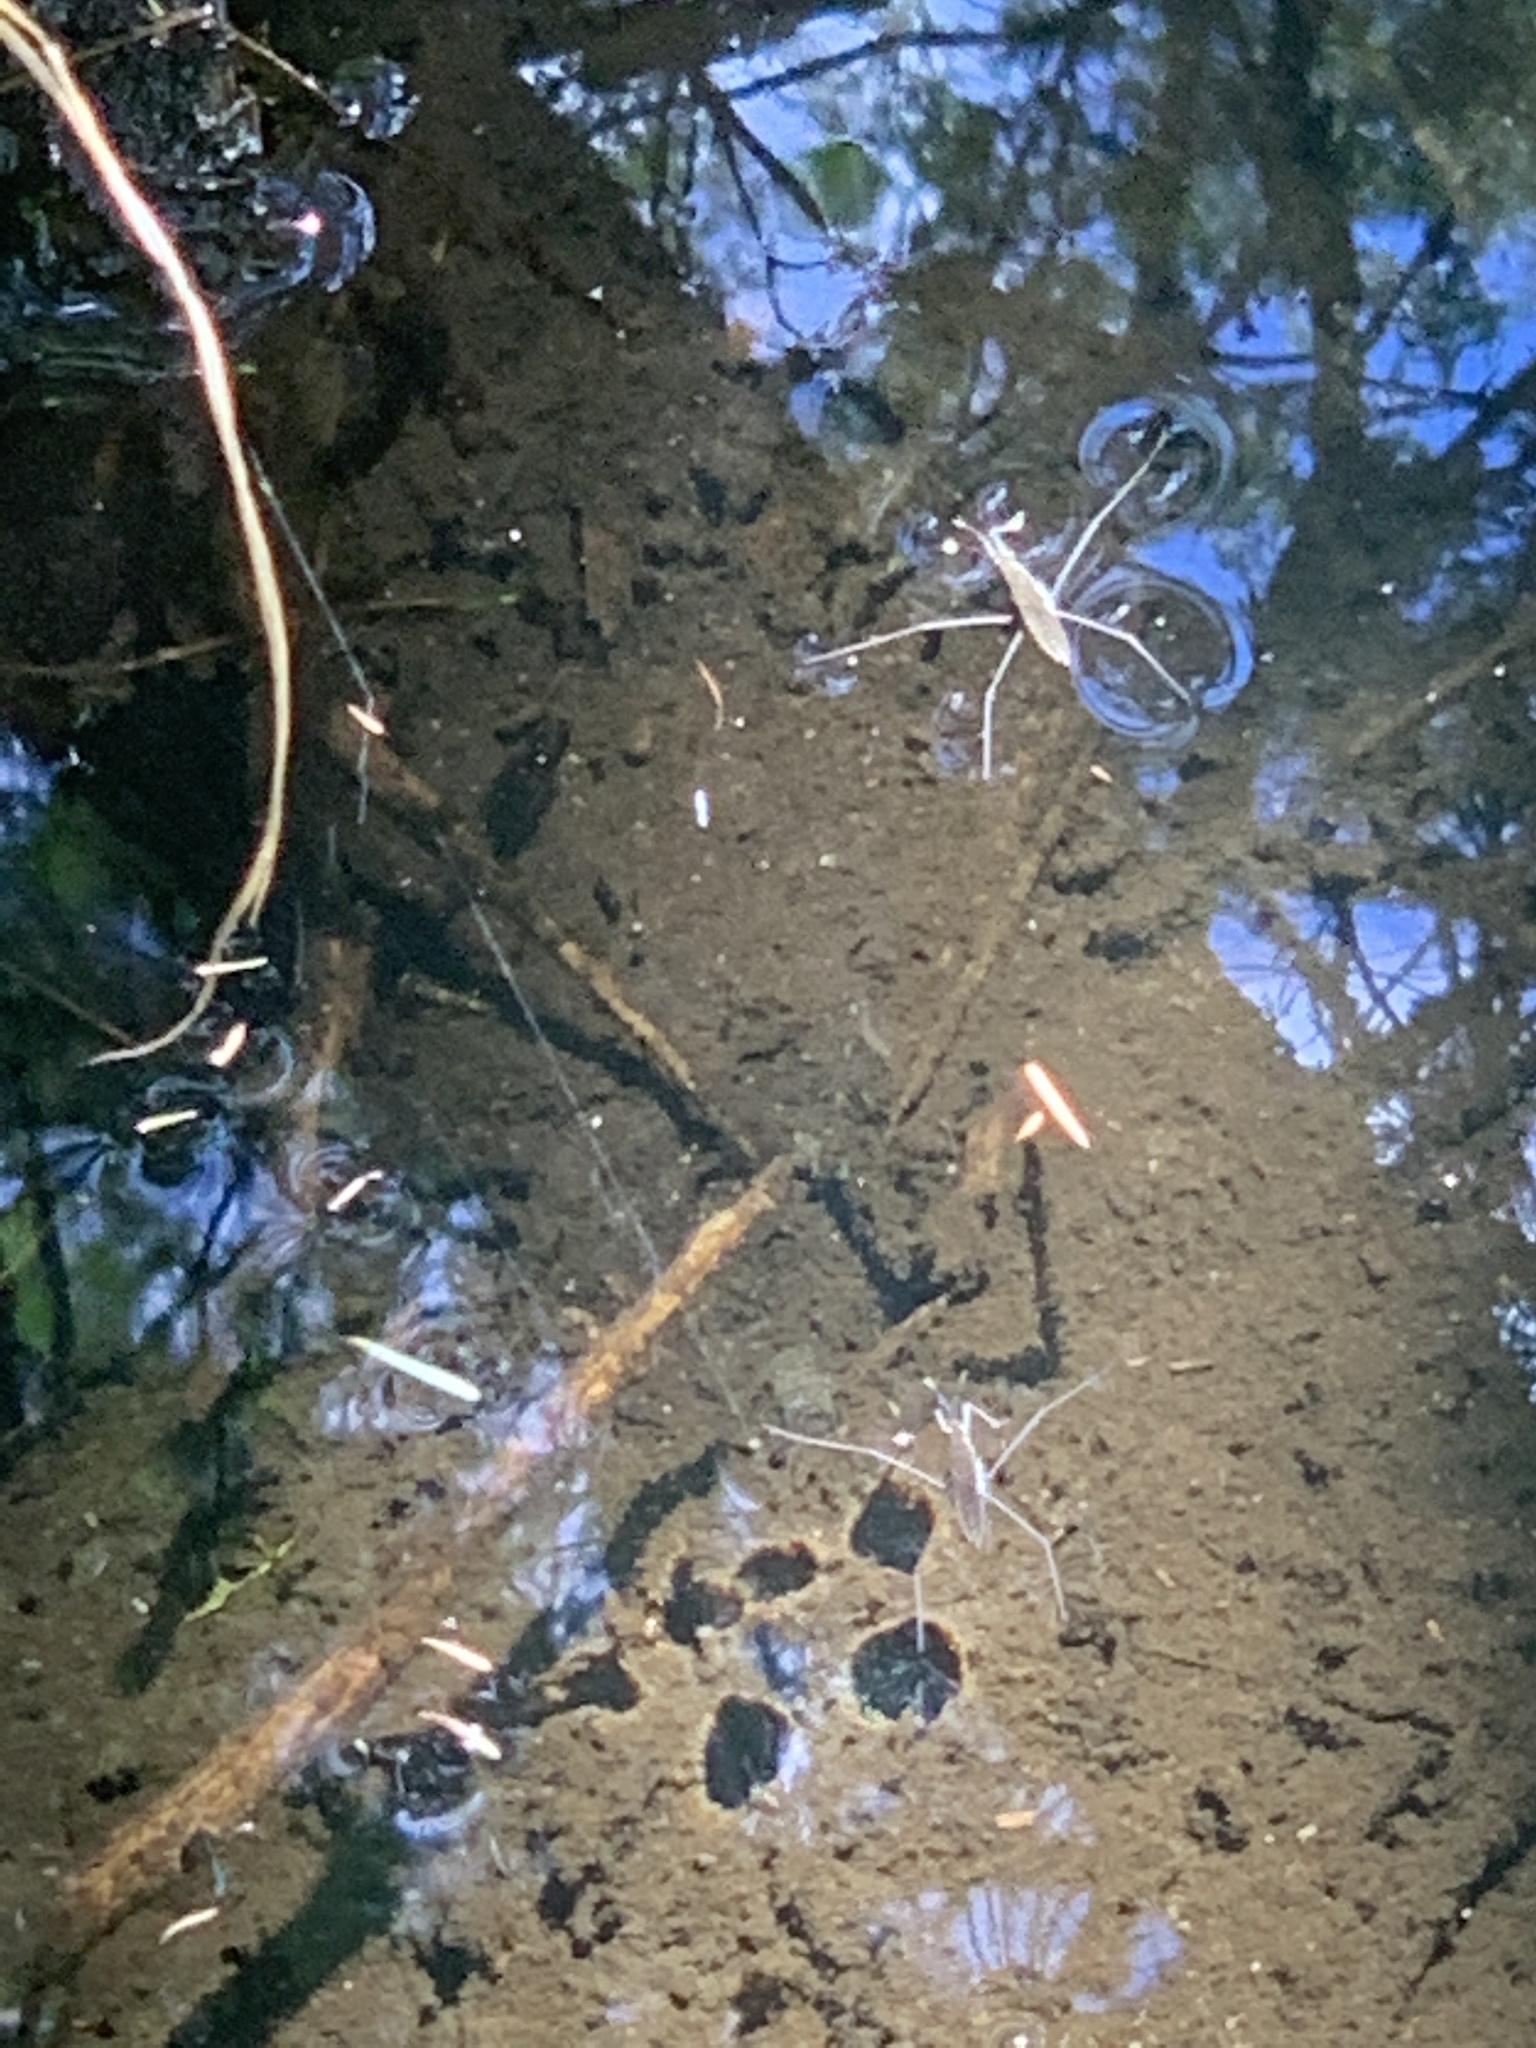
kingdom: Animalia
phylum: Arthropoda
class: Insecta
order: Hemiptera
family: Gerridae
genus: Aquarius
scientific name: Aquarius remigis
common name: Common water strider
